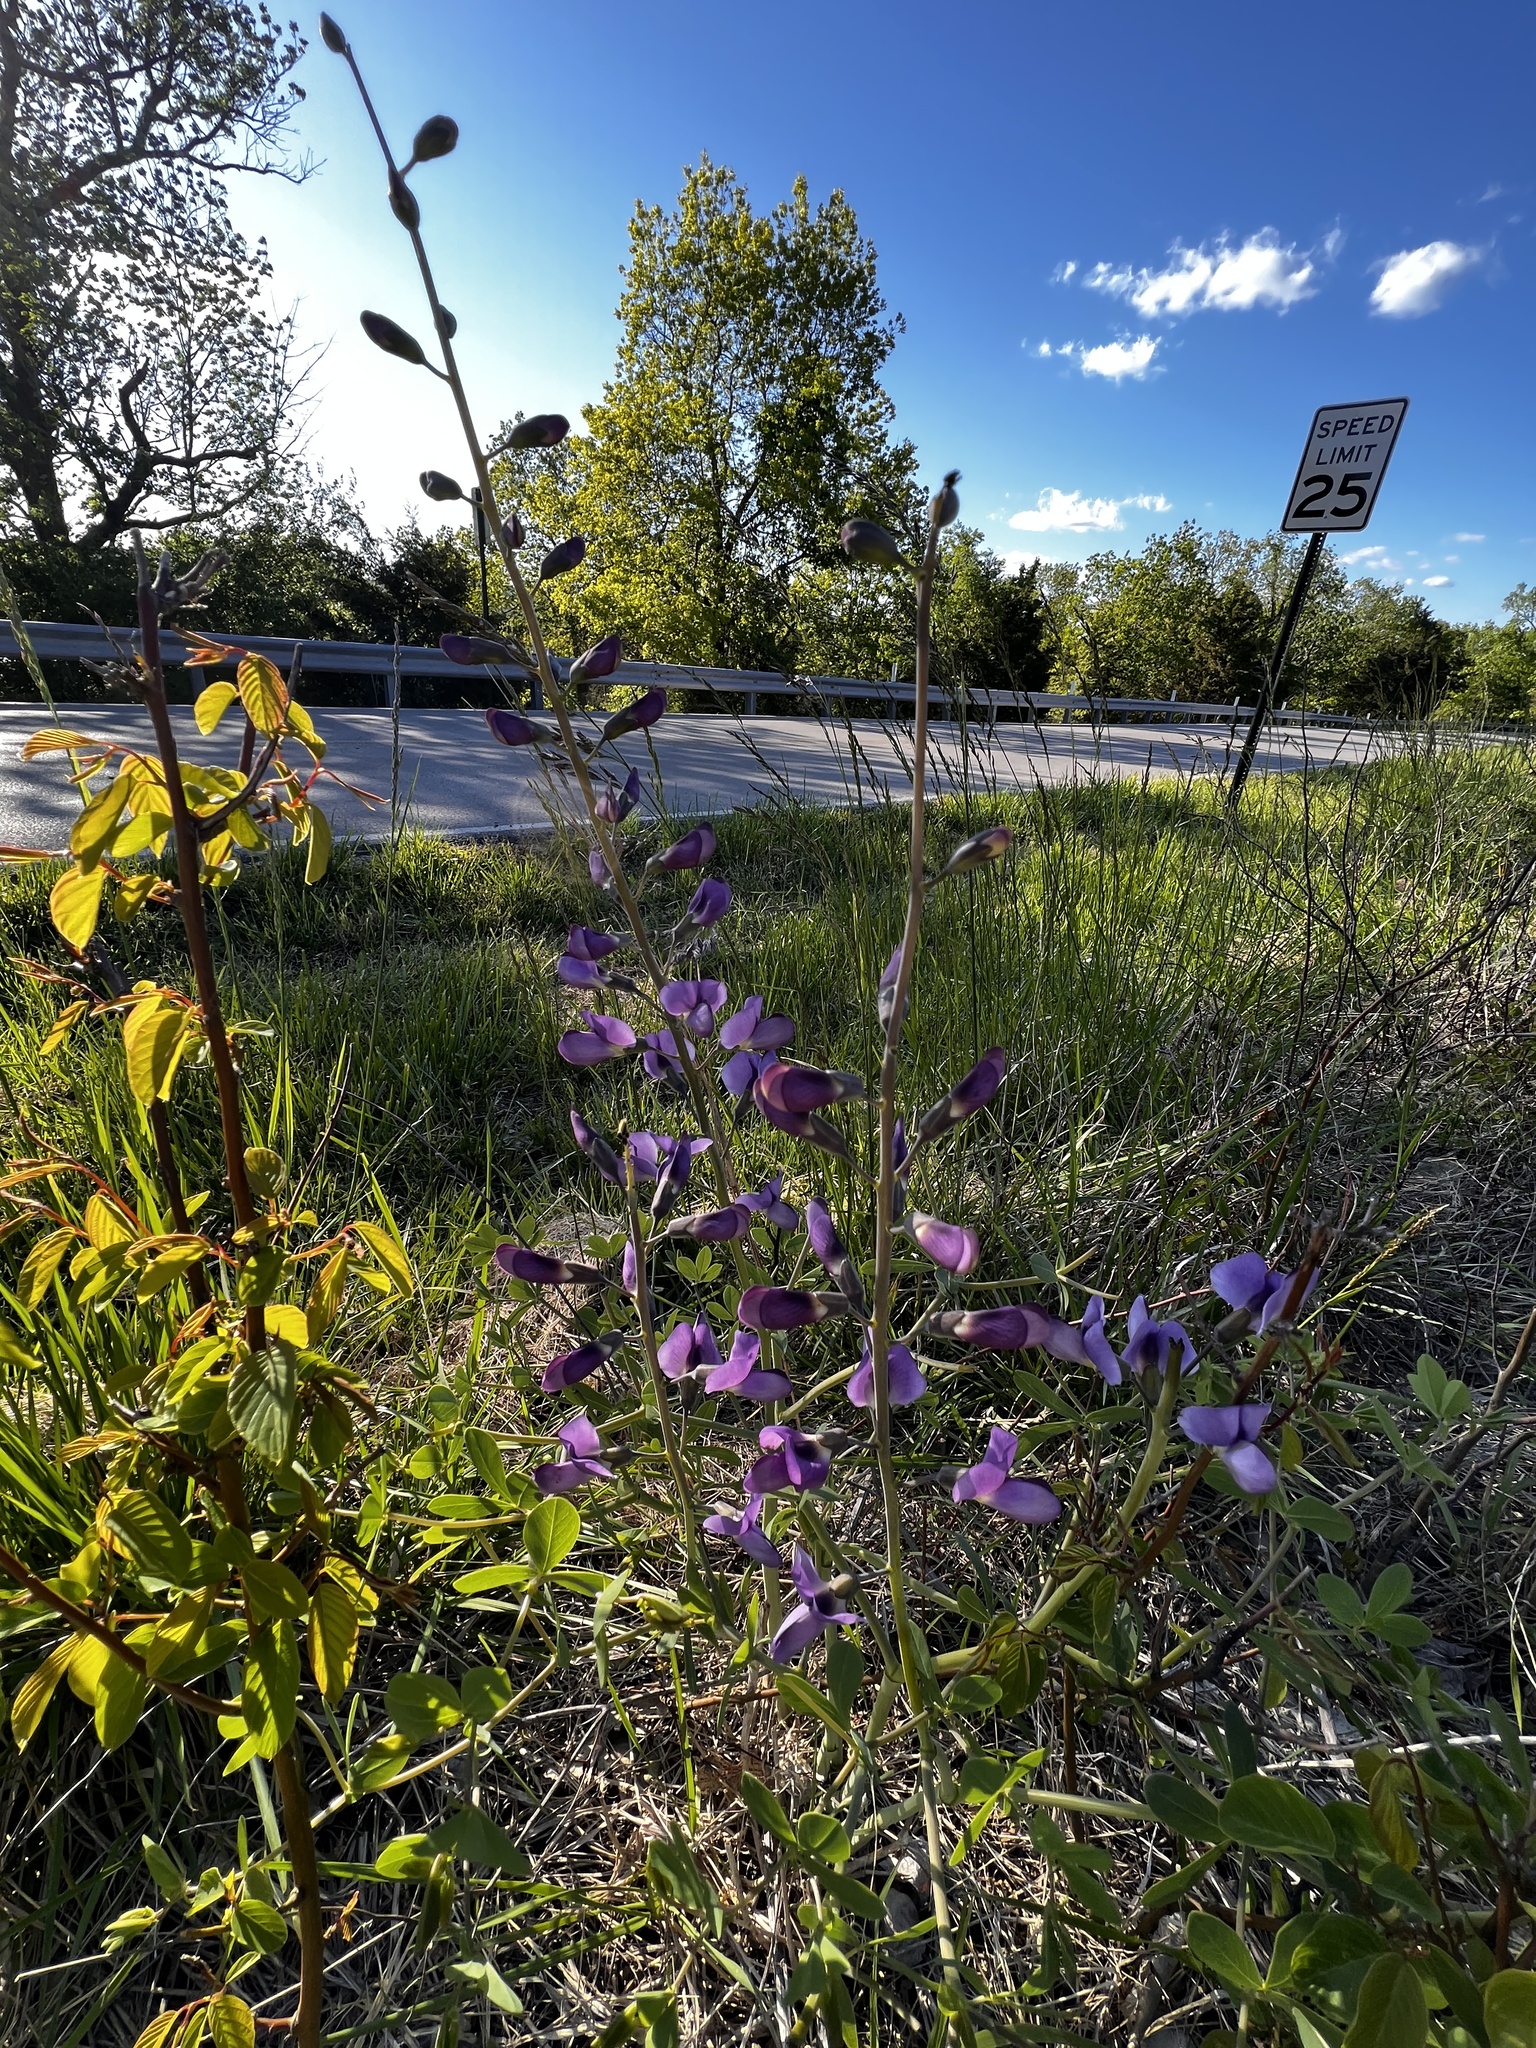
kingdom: Plantae
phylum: Tracheophyta
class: Magnoliopsida
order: Fabales
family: Fabaceae
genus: Baptisia
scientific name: Baptisia australis
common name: Blue false indigo
